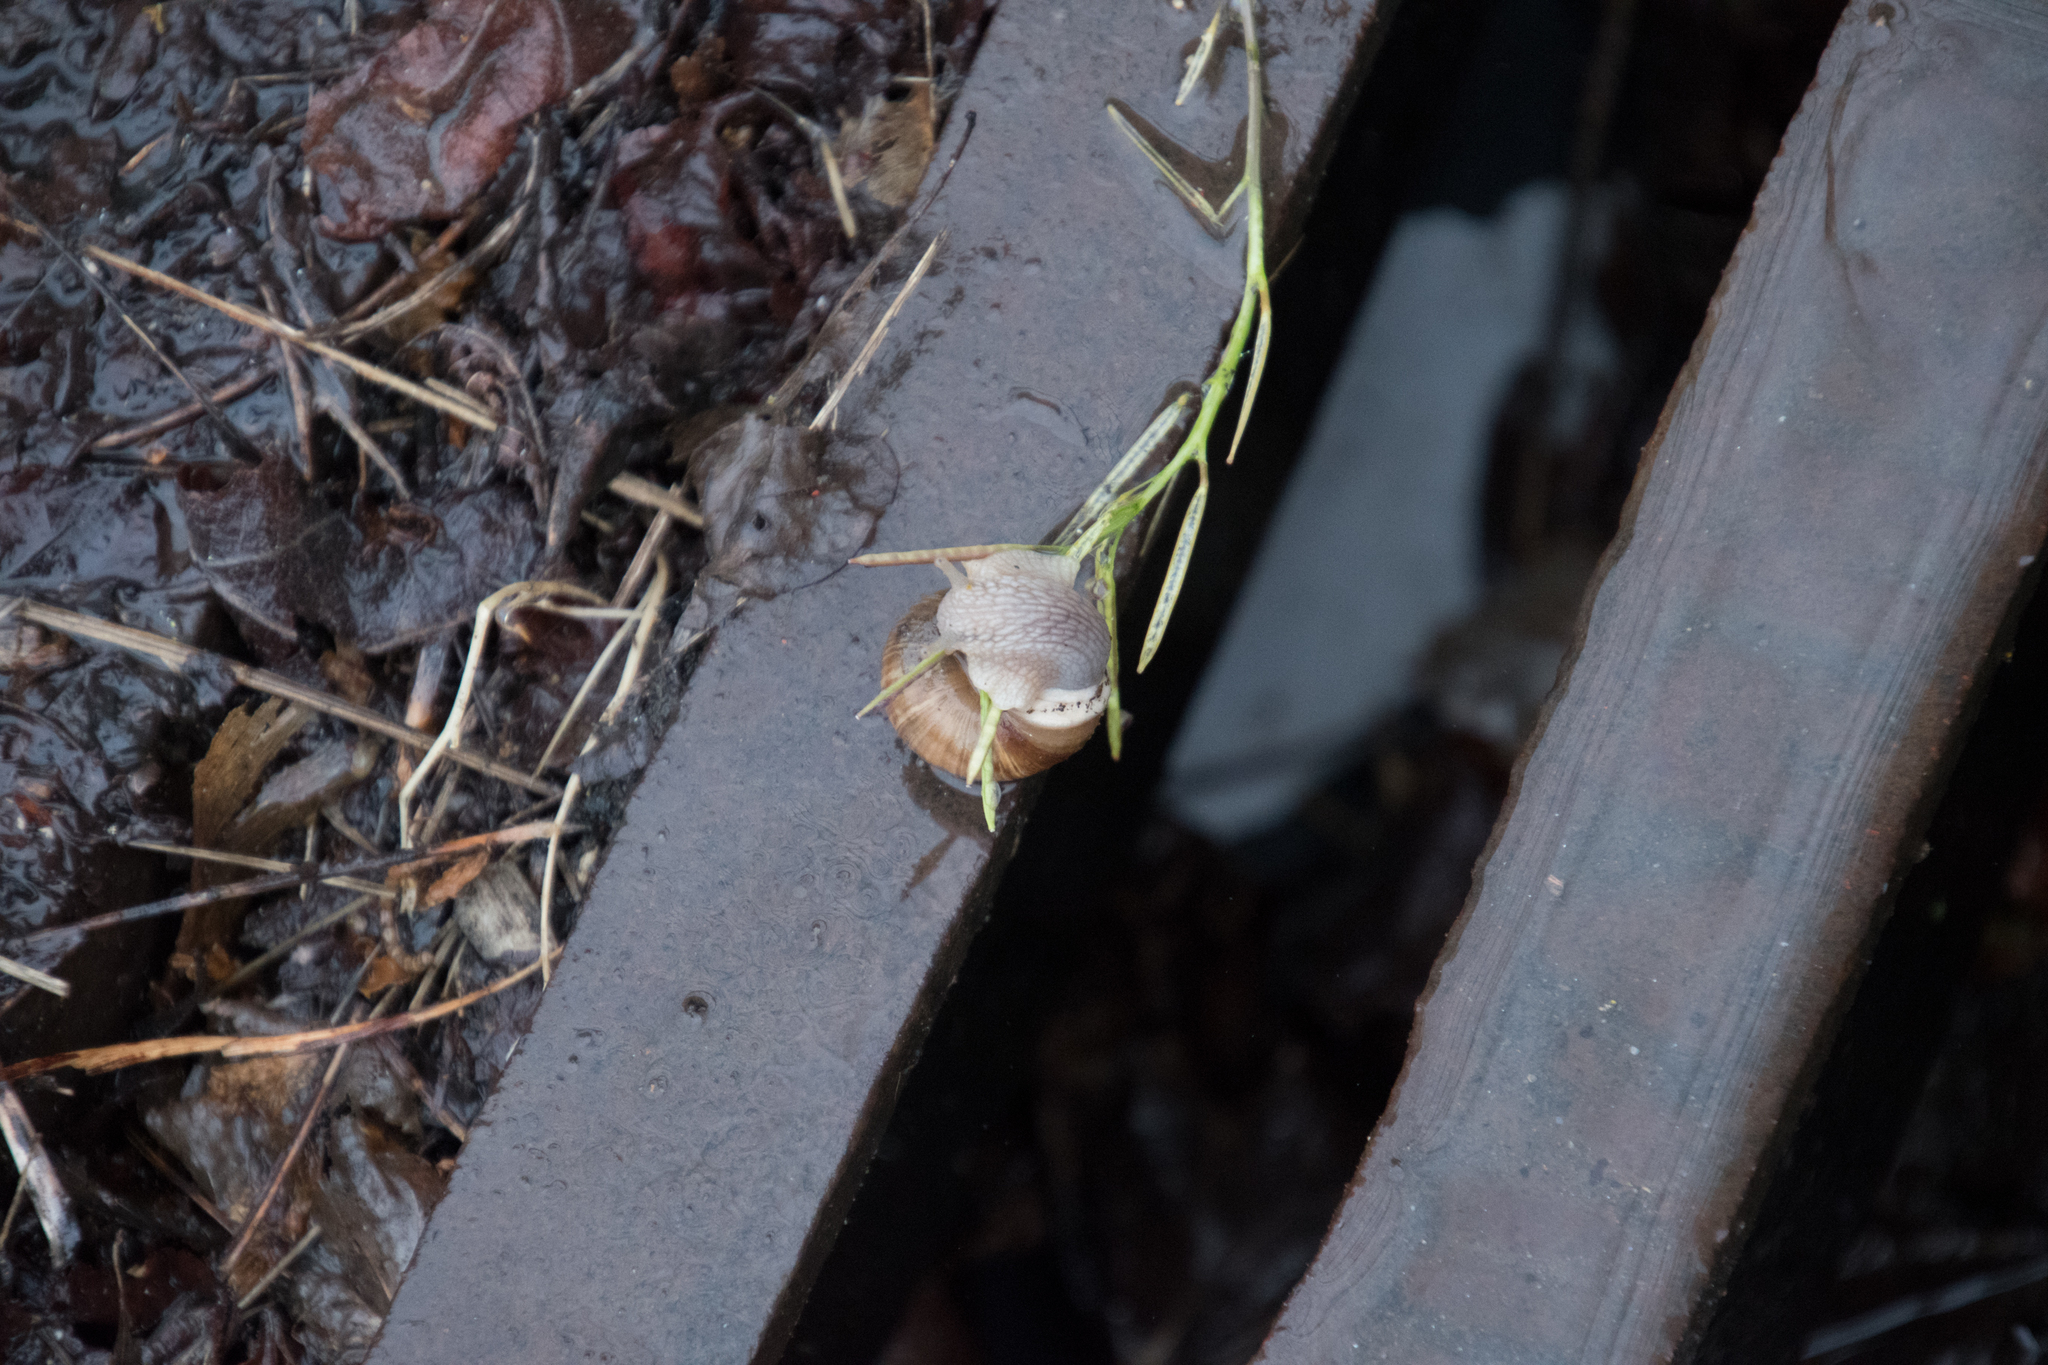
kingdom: Animalia
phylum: Mollusca
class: Gastropoda
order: Stylommatophora
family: Helicidae
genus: Helix
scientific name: Helix pomatia
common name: Roman snail
